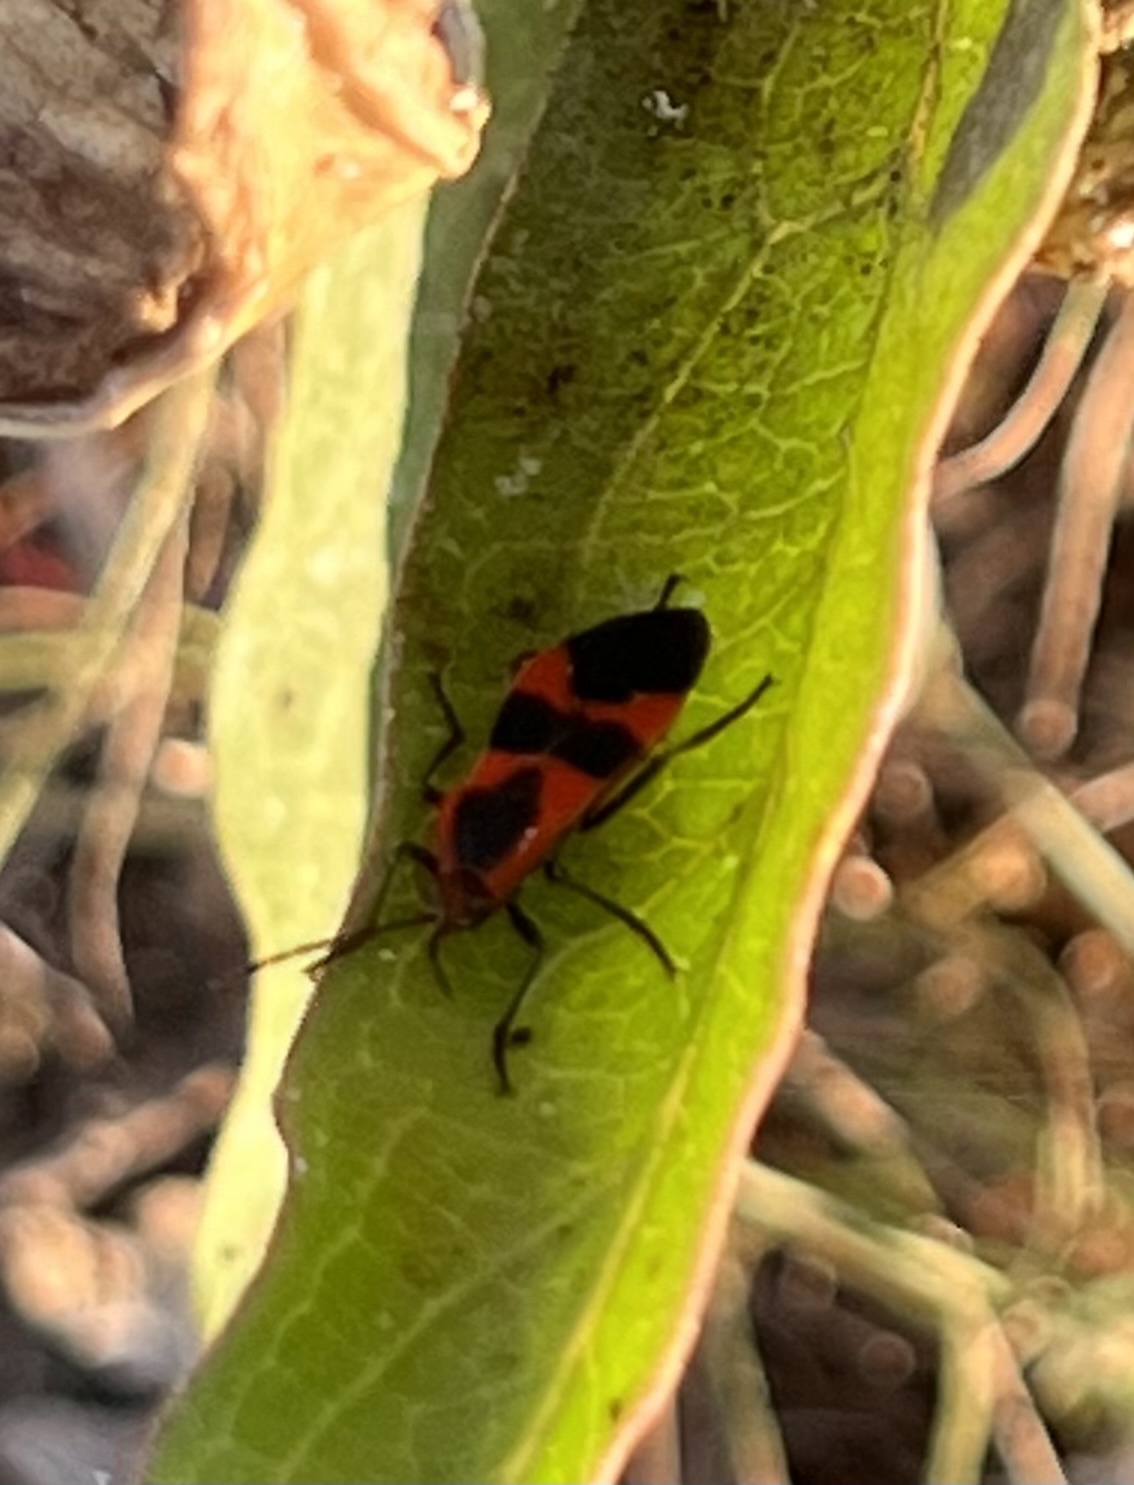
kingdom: Animalia
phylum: Arthropoda
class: Insecta
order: Hemiptera
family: Lygaeidae
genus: Oncopeltus
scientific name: Oncopeltus fasciatus
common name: Large milkweed bug
